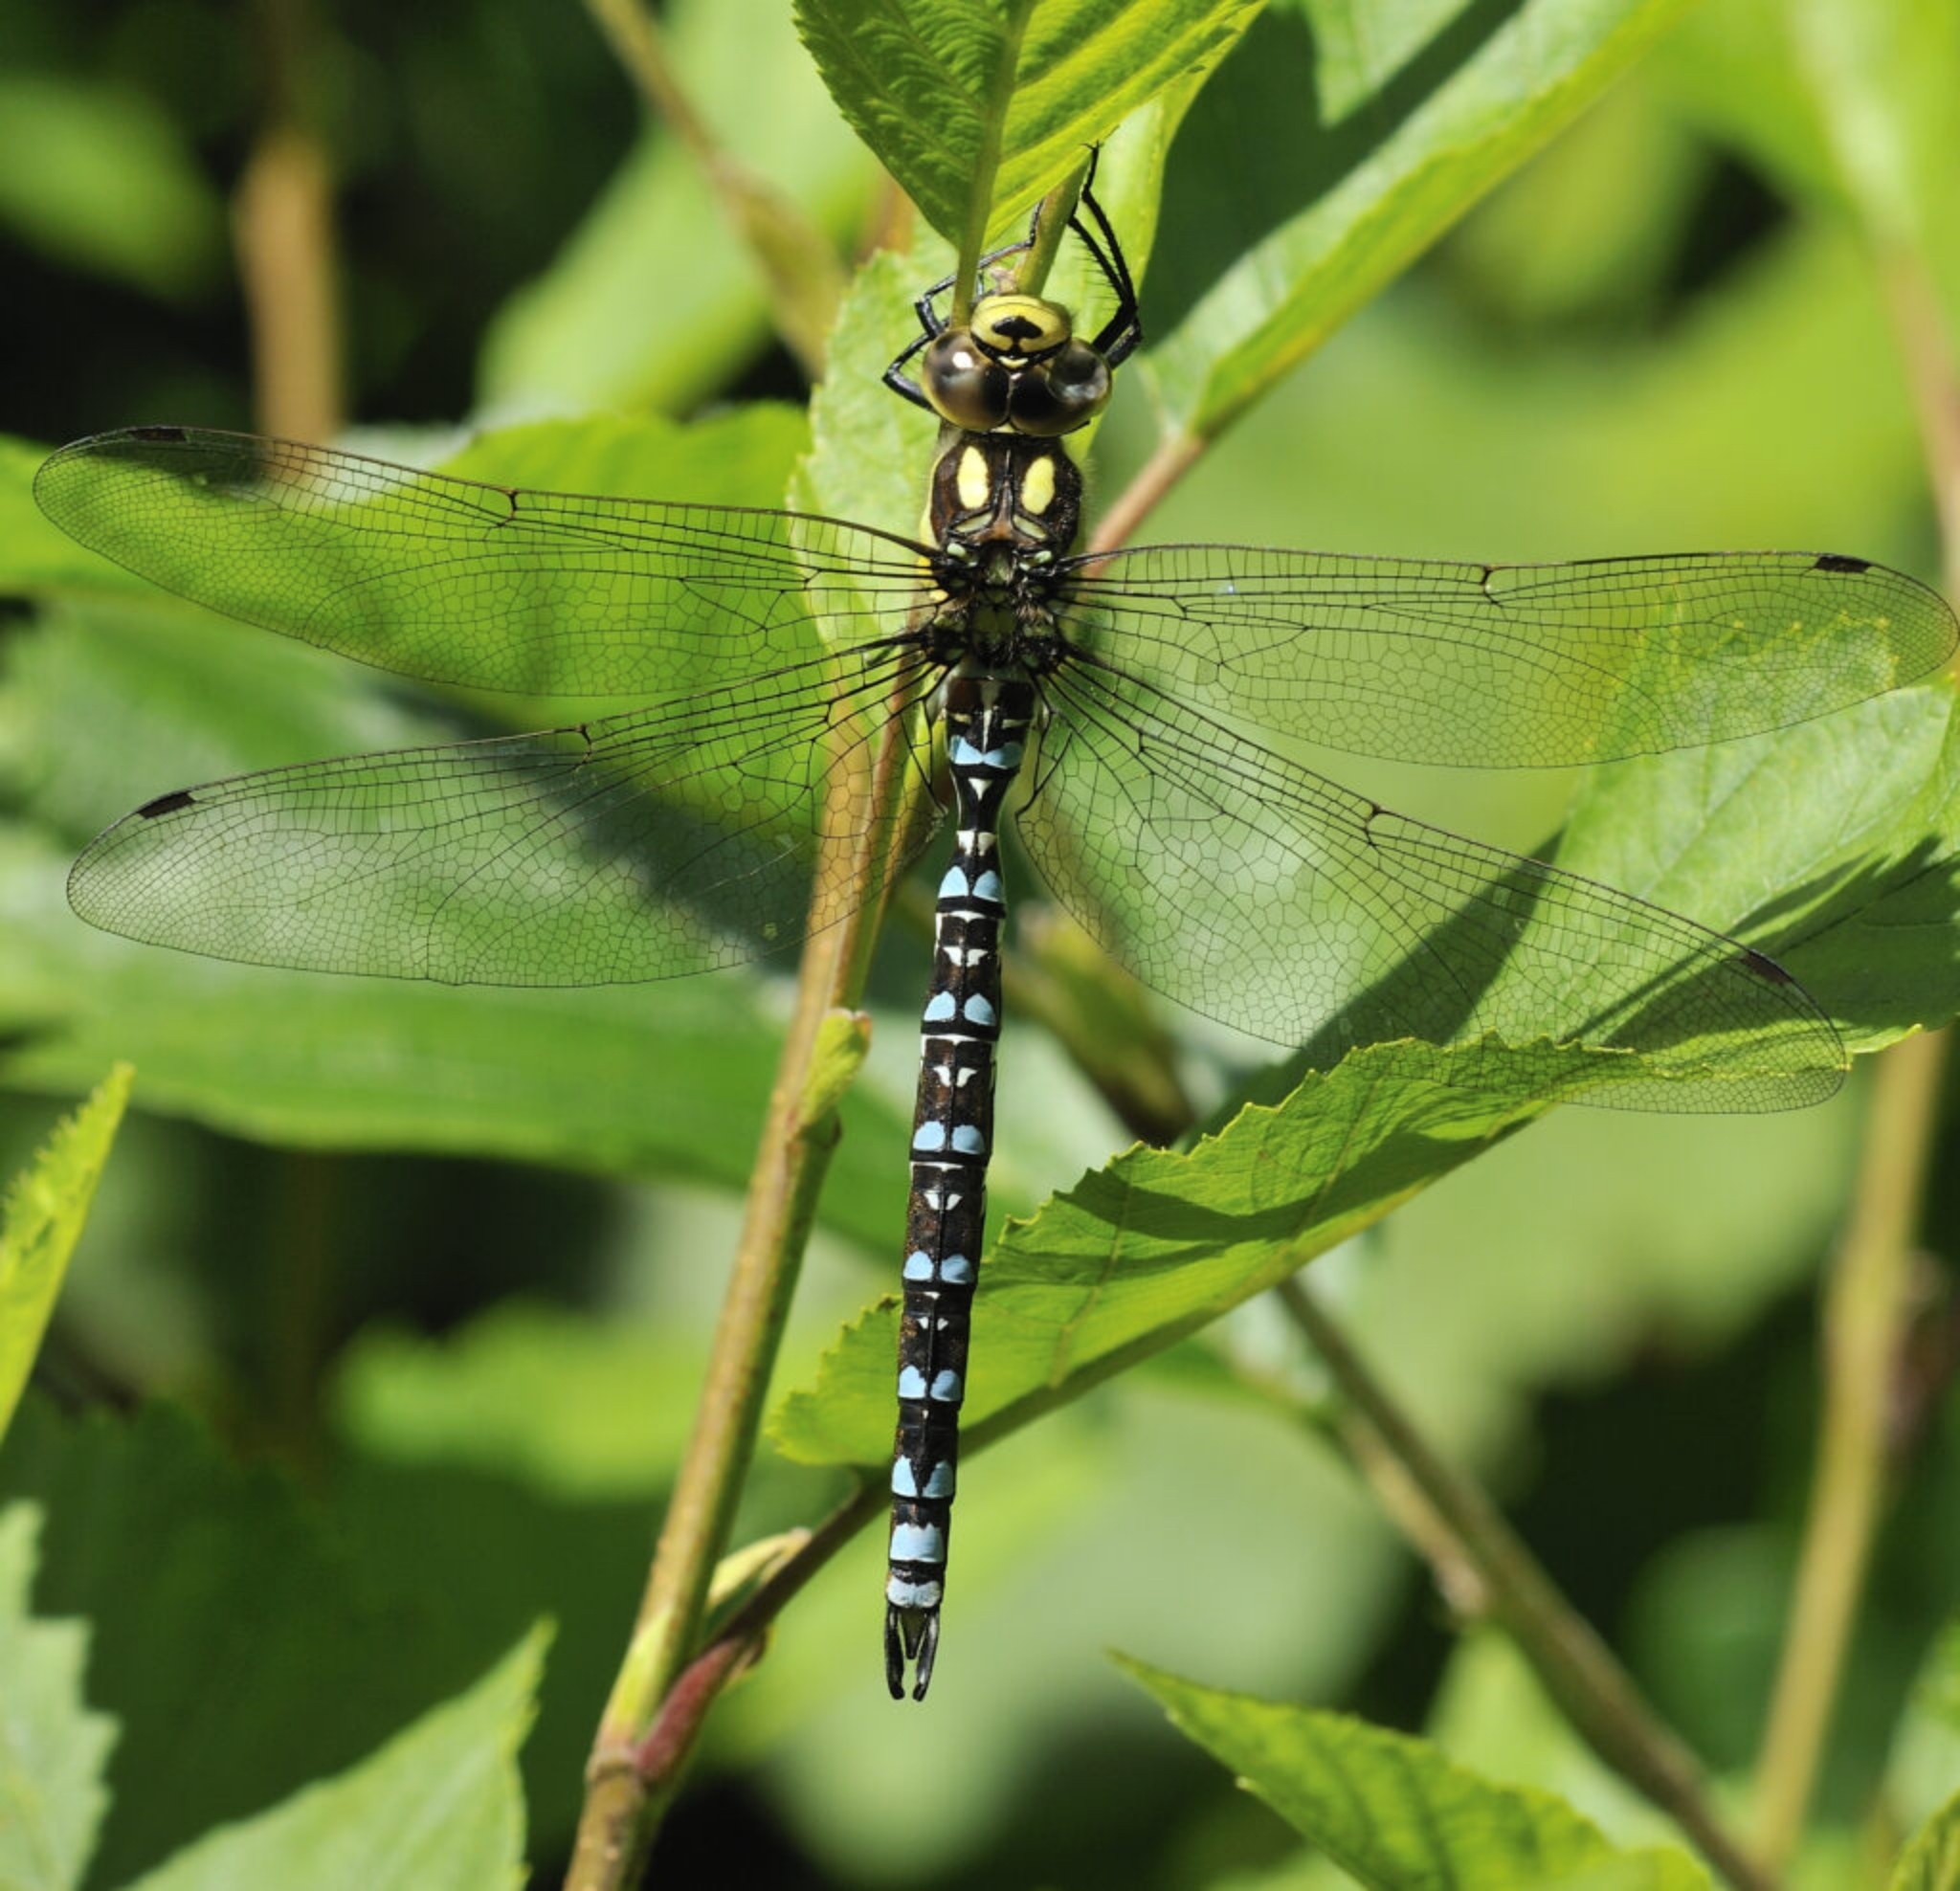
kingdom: Animalia
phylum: Arthropoda
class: Insecta
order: Odonata
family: Aeshnidae
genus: Aeshna
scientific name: Aeshna cyanea
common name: Southern hawker
